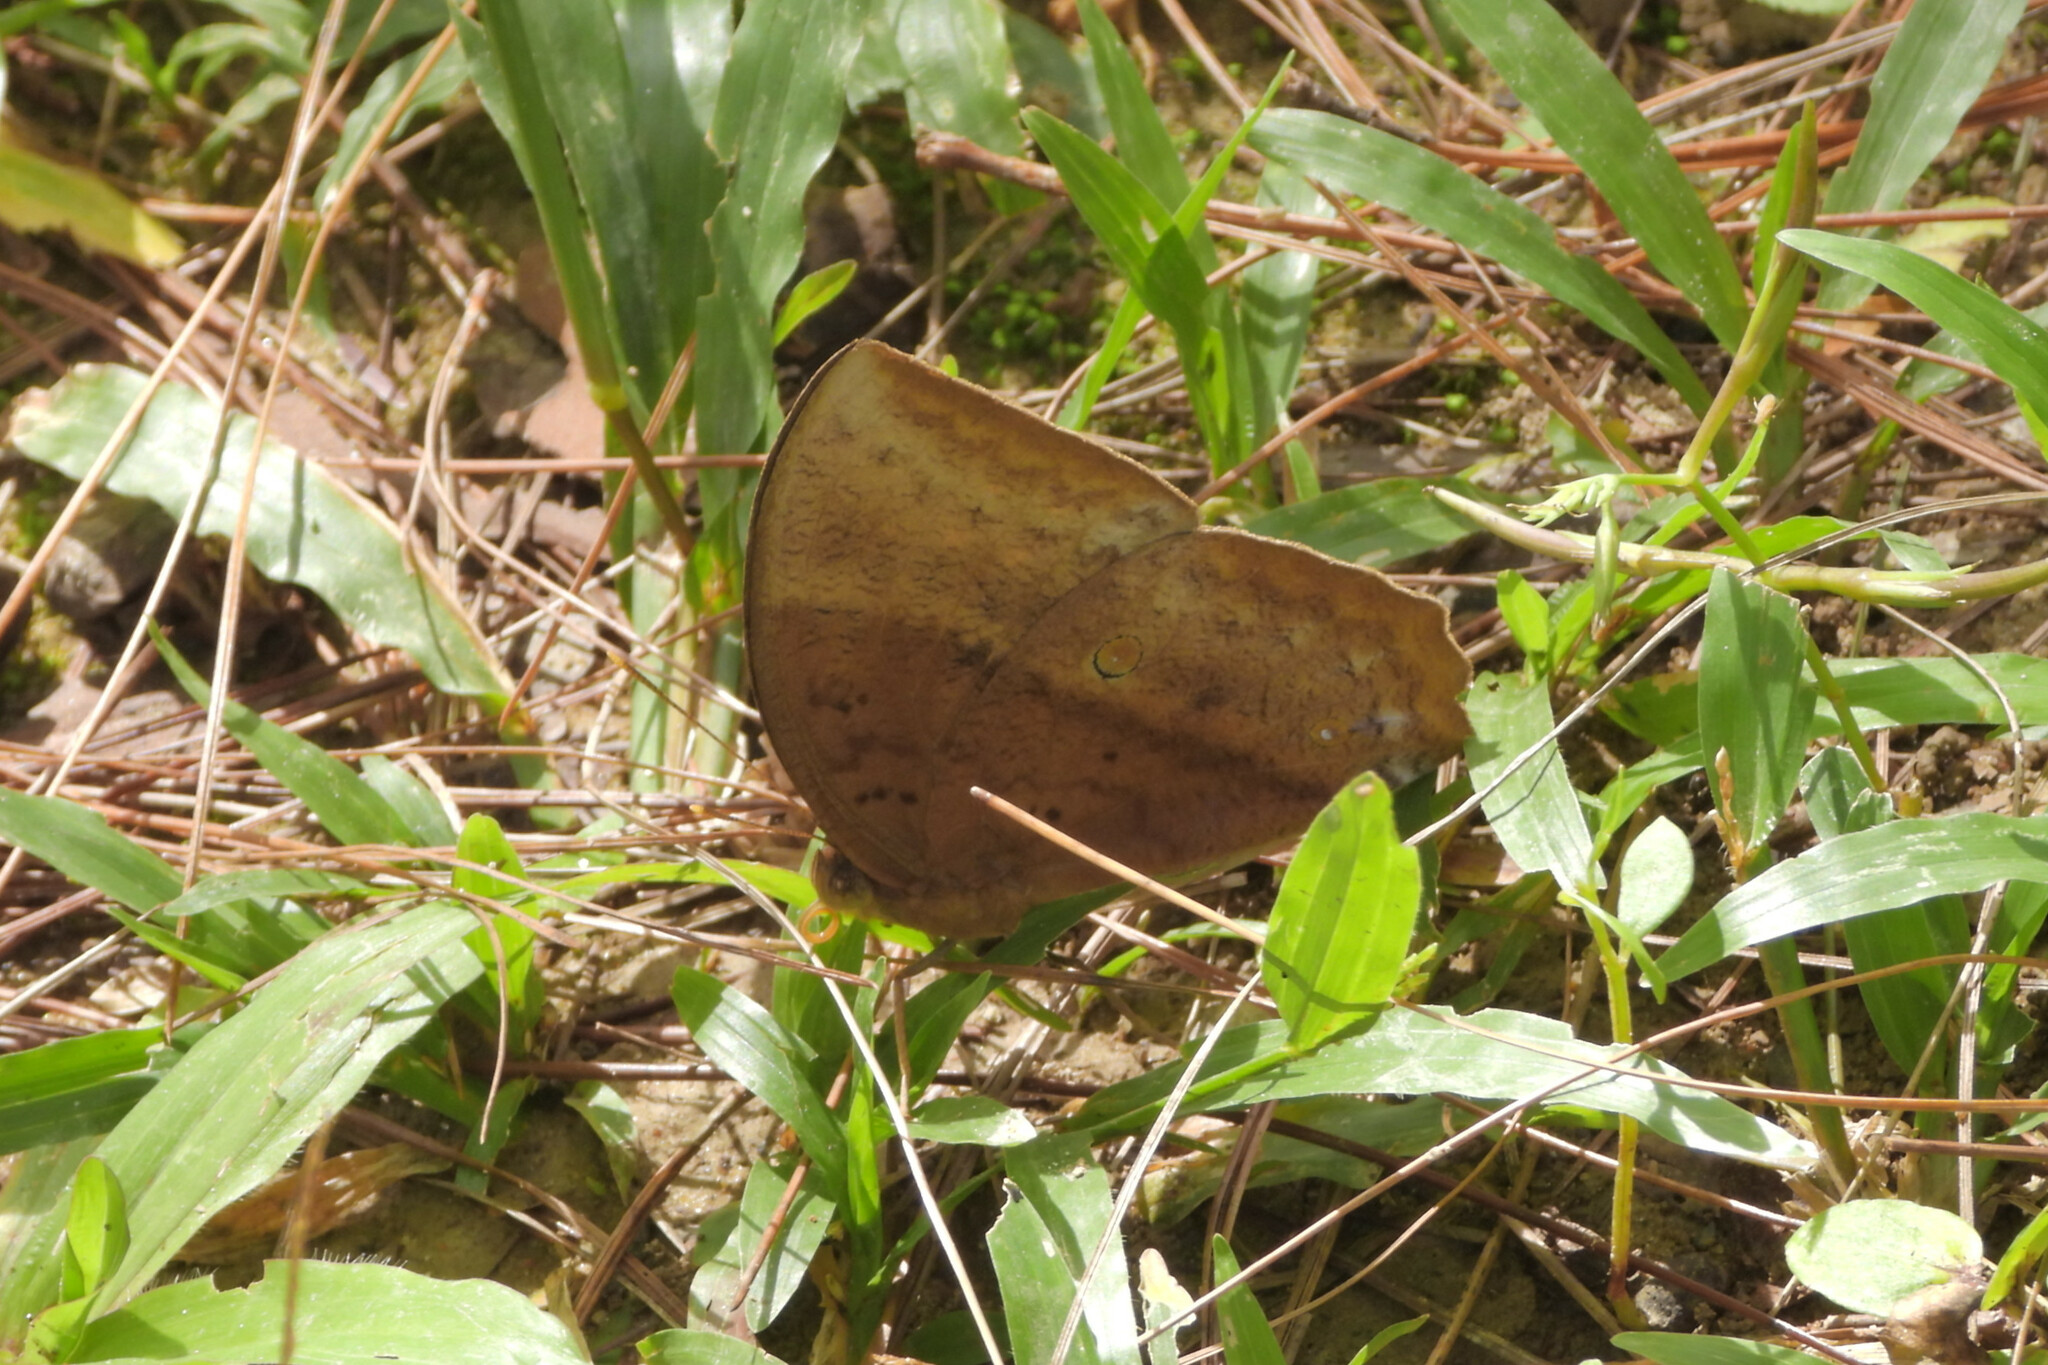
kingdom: Animalia
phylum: Arthropoda
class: Insecta
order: Lepidoptera
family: Nymphalidae
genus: Discophora
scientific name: Discophora sondaica
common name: Common duffer
